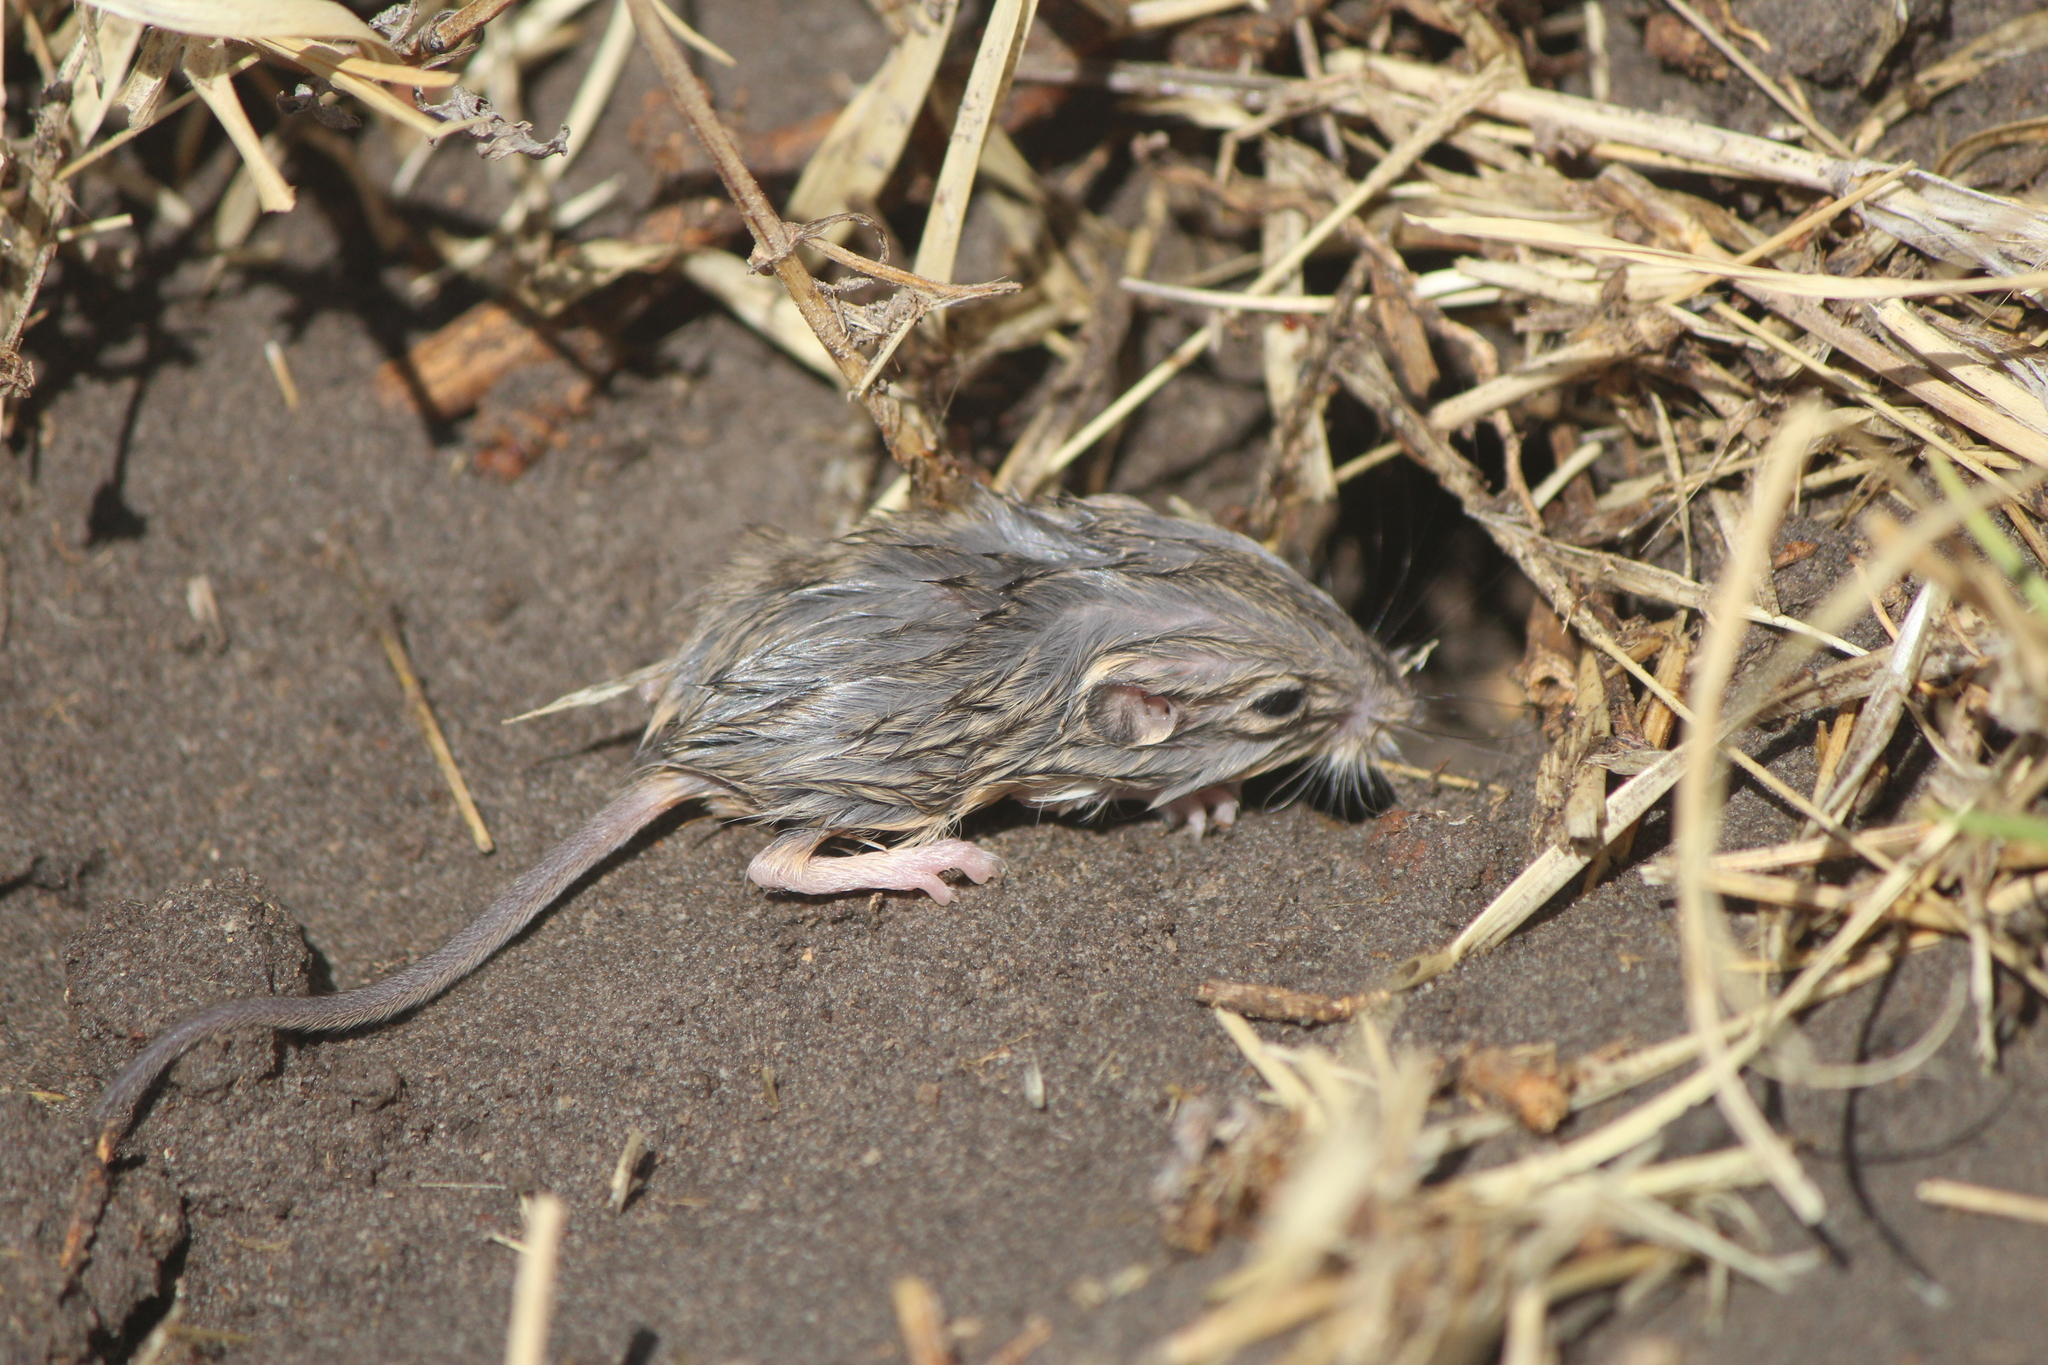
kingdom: Animalia
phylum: Chordata
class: Mammalia
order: Rodentia
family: Muridae
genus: Mus
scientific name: Mus musculus
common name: House mouse
